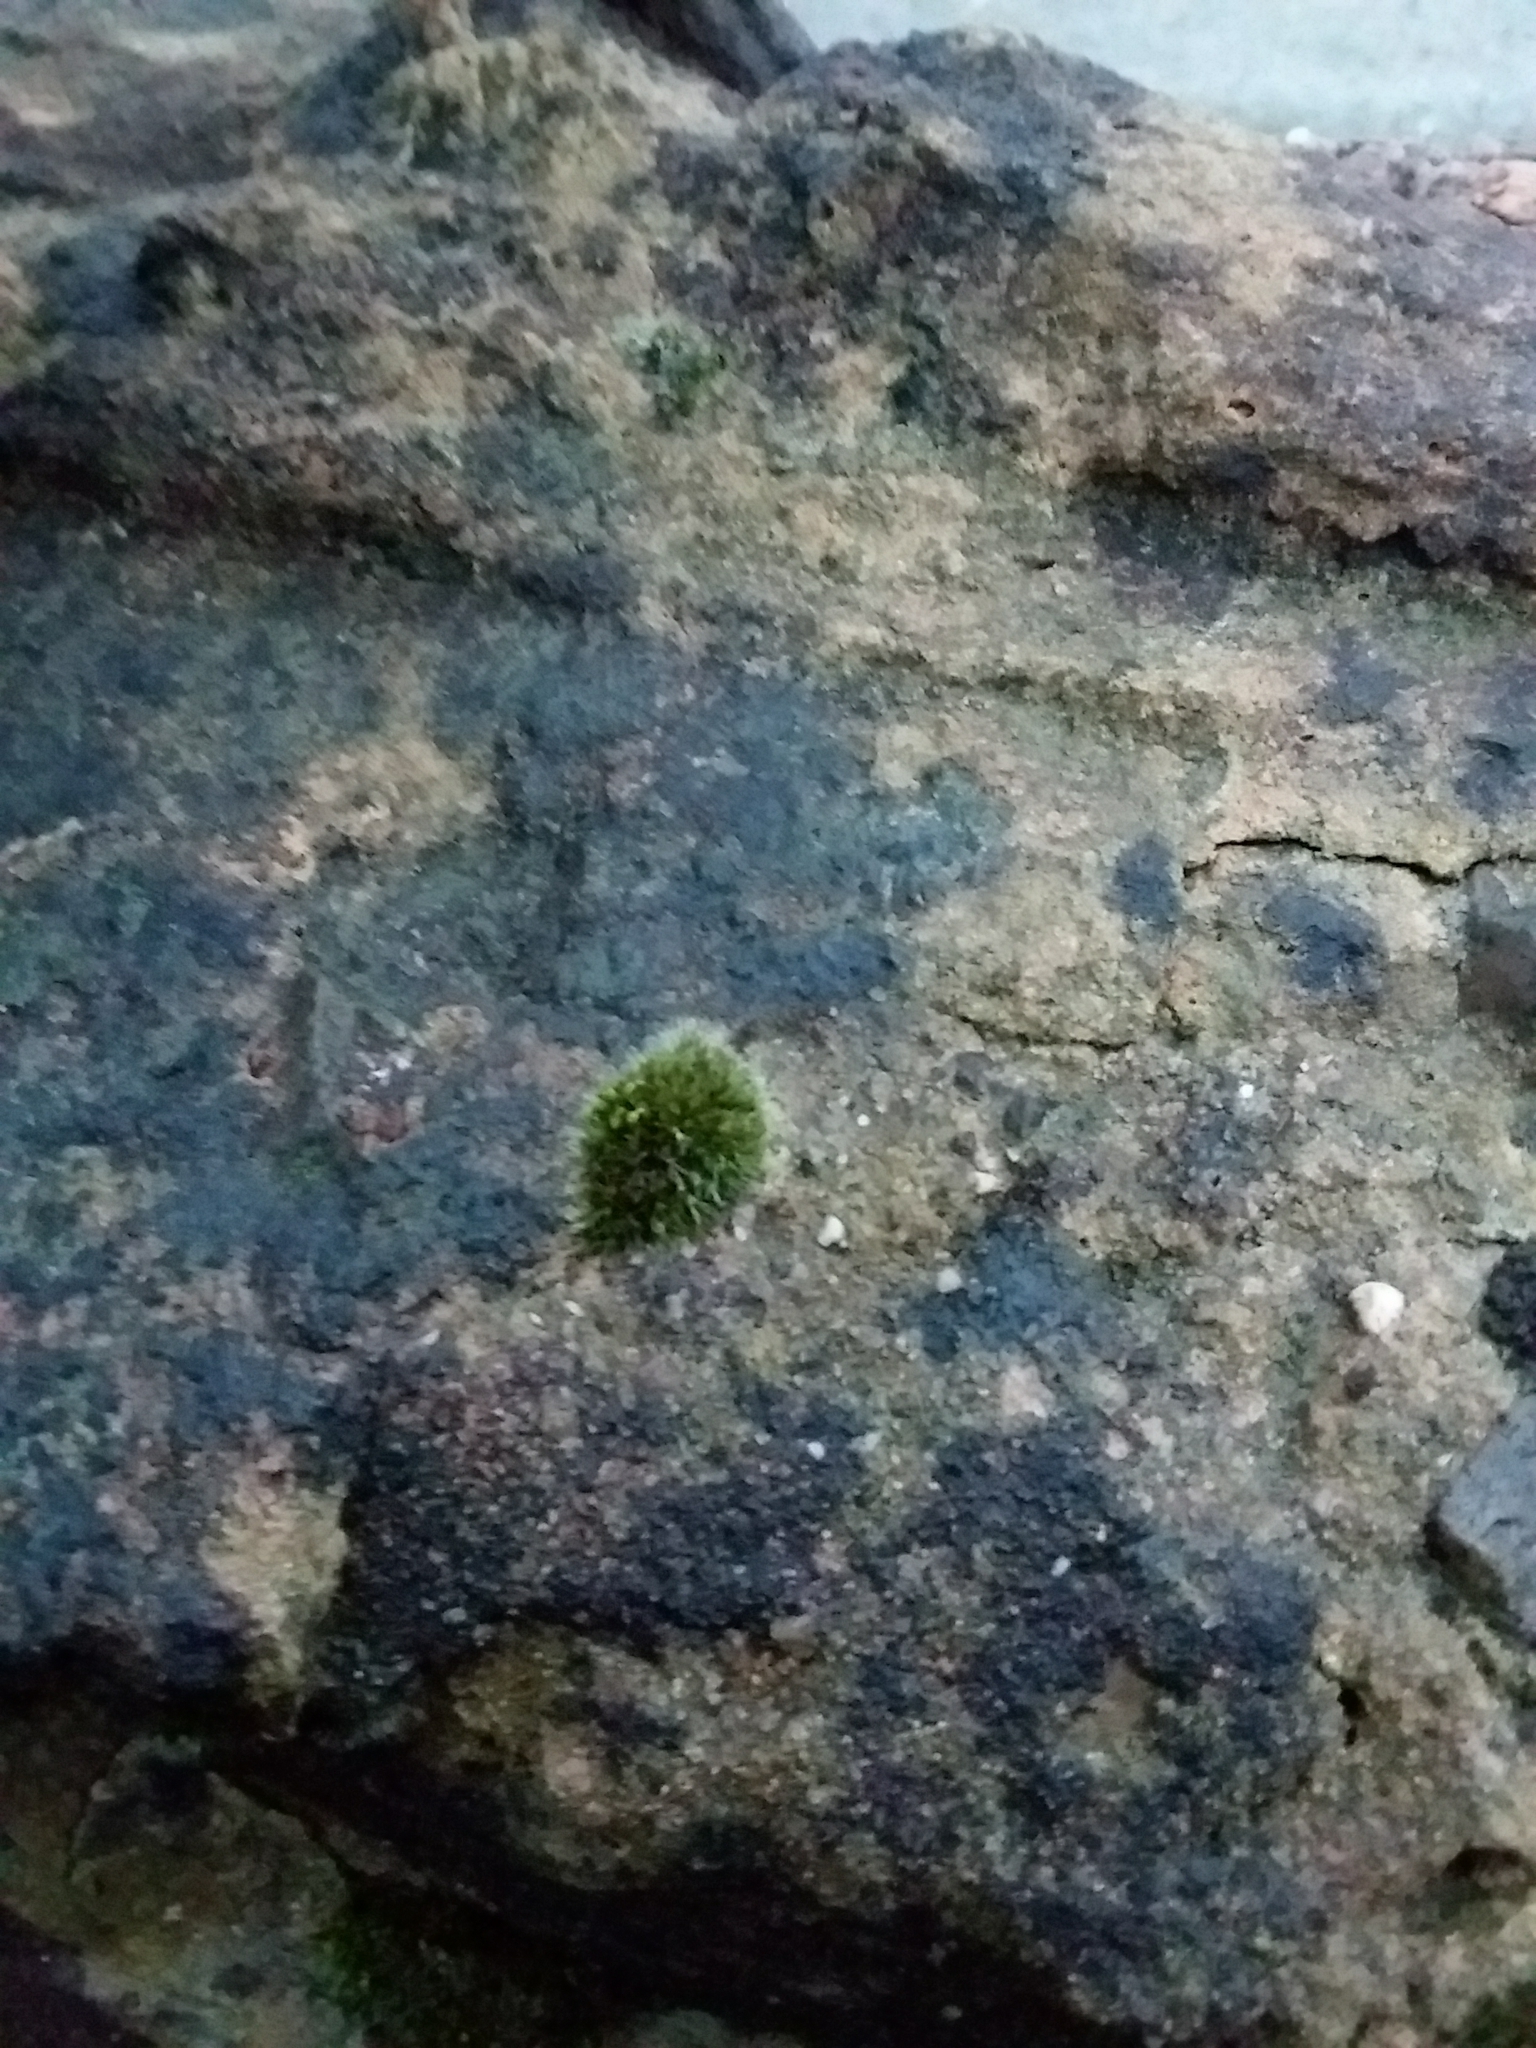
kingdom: Plantae
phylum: Bryophyta
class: Bryopsida
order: Grimmiales
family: Grimmiaceae
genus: Grimmia
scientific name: Grimmia pulvinata
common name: Grey-cushioned grimmia
